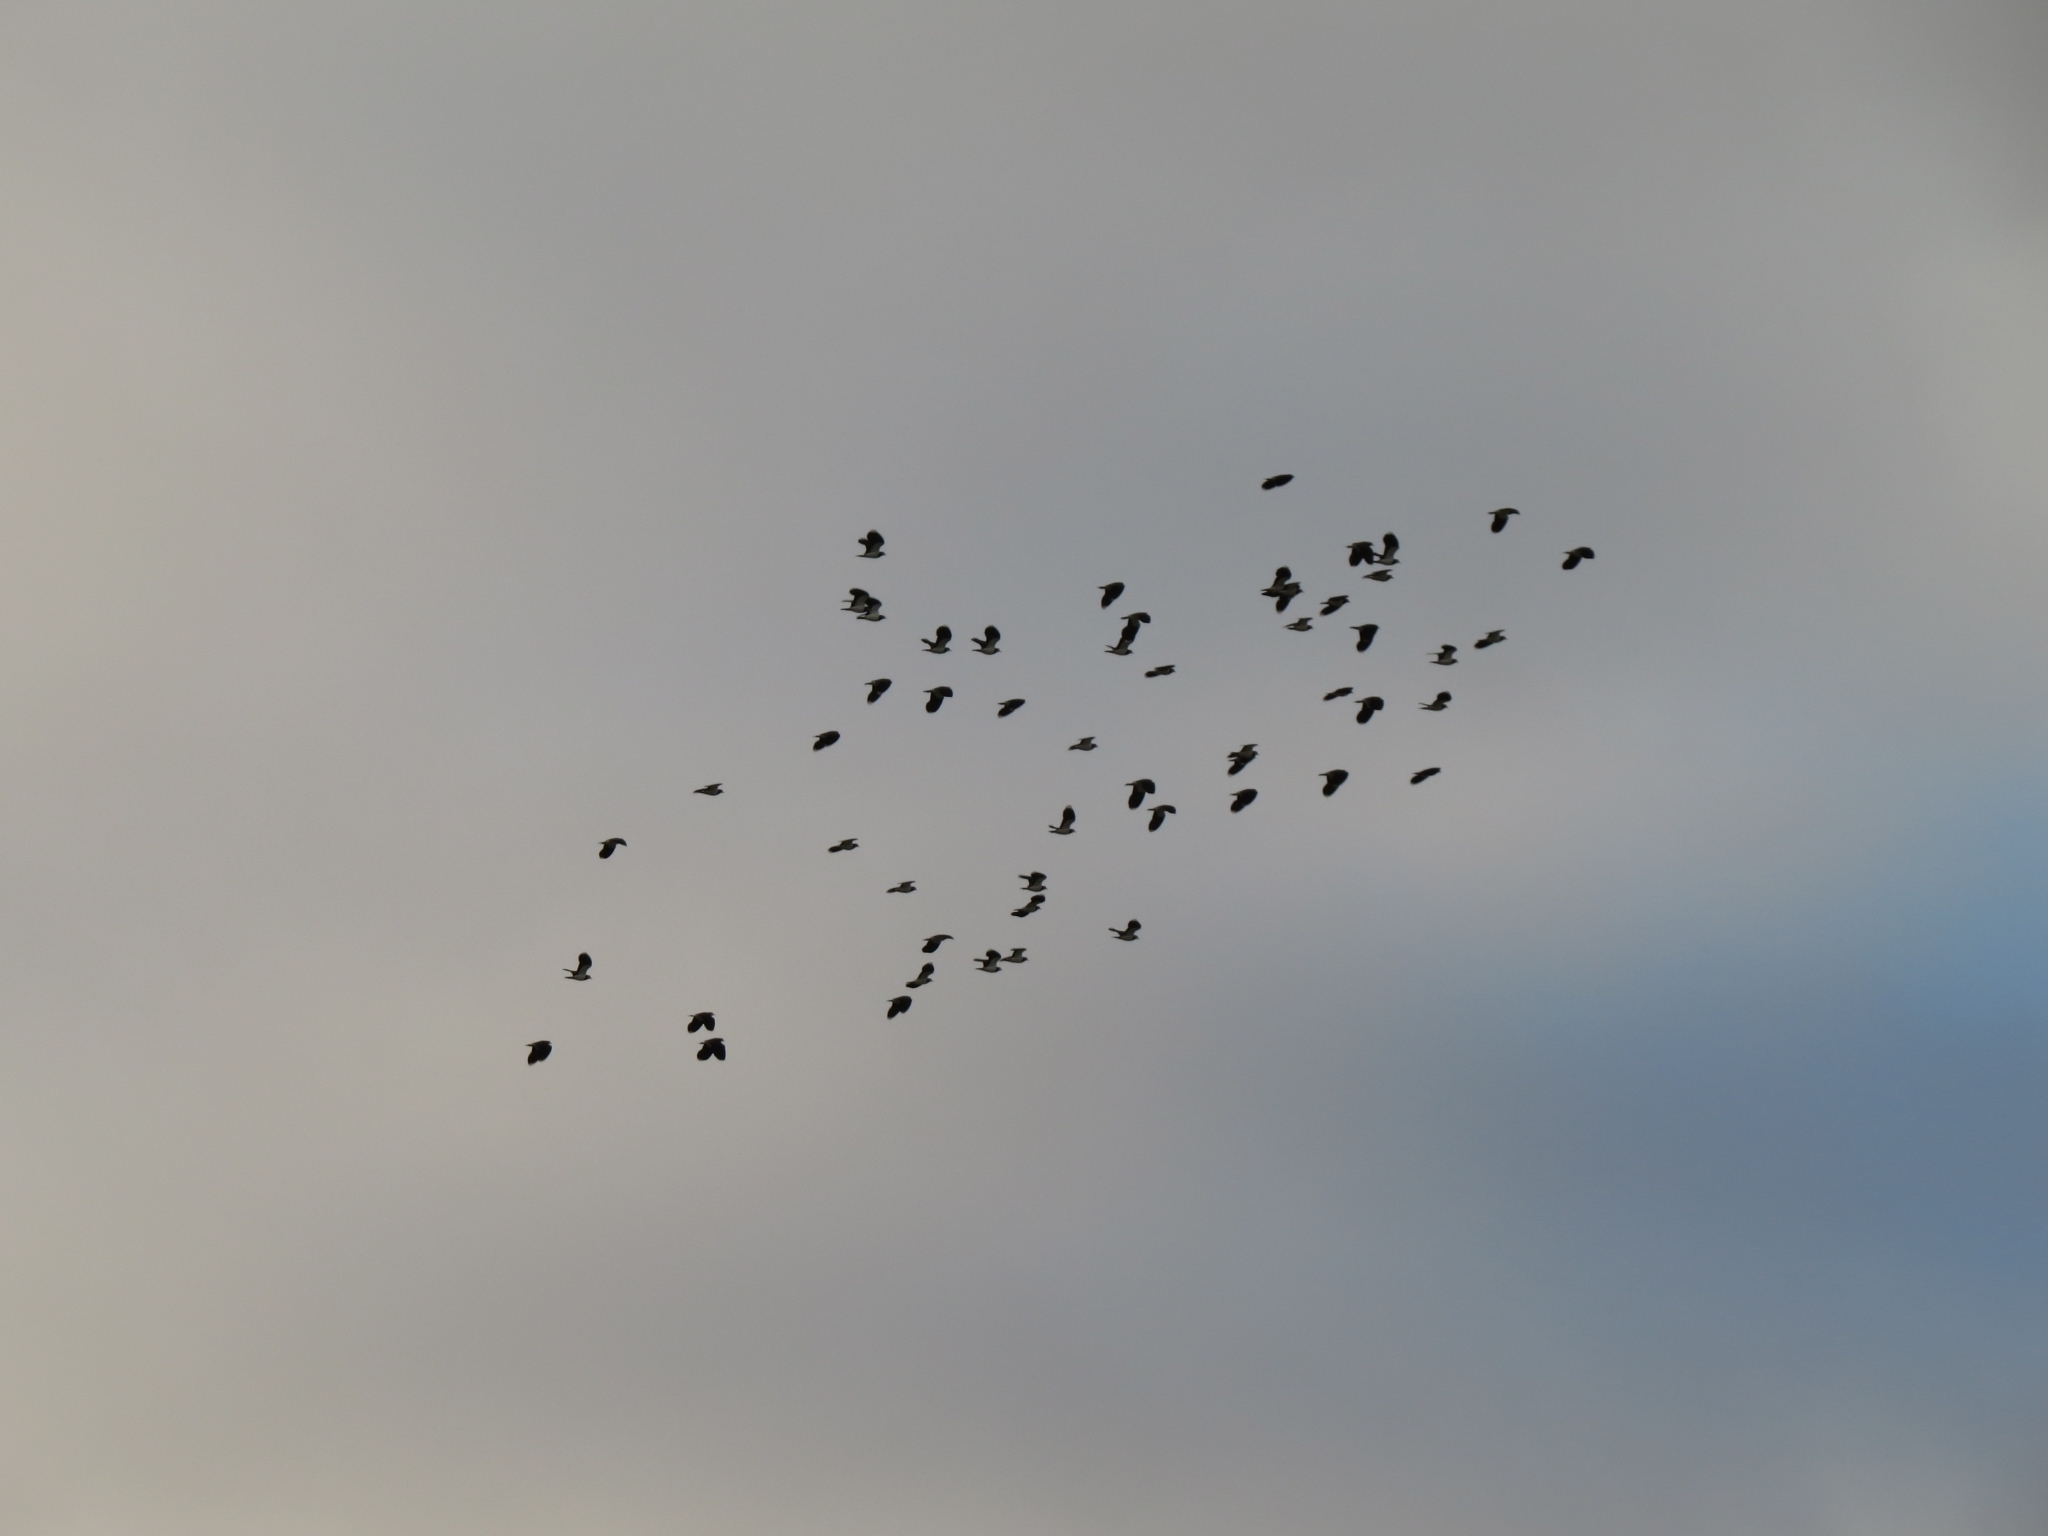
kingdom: Animalia
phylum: Chordata
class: Aves
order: Charadriiformes
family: Charadriidae
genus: Vanellus
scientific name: Vanellus vanellus
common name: Northern lapwing
